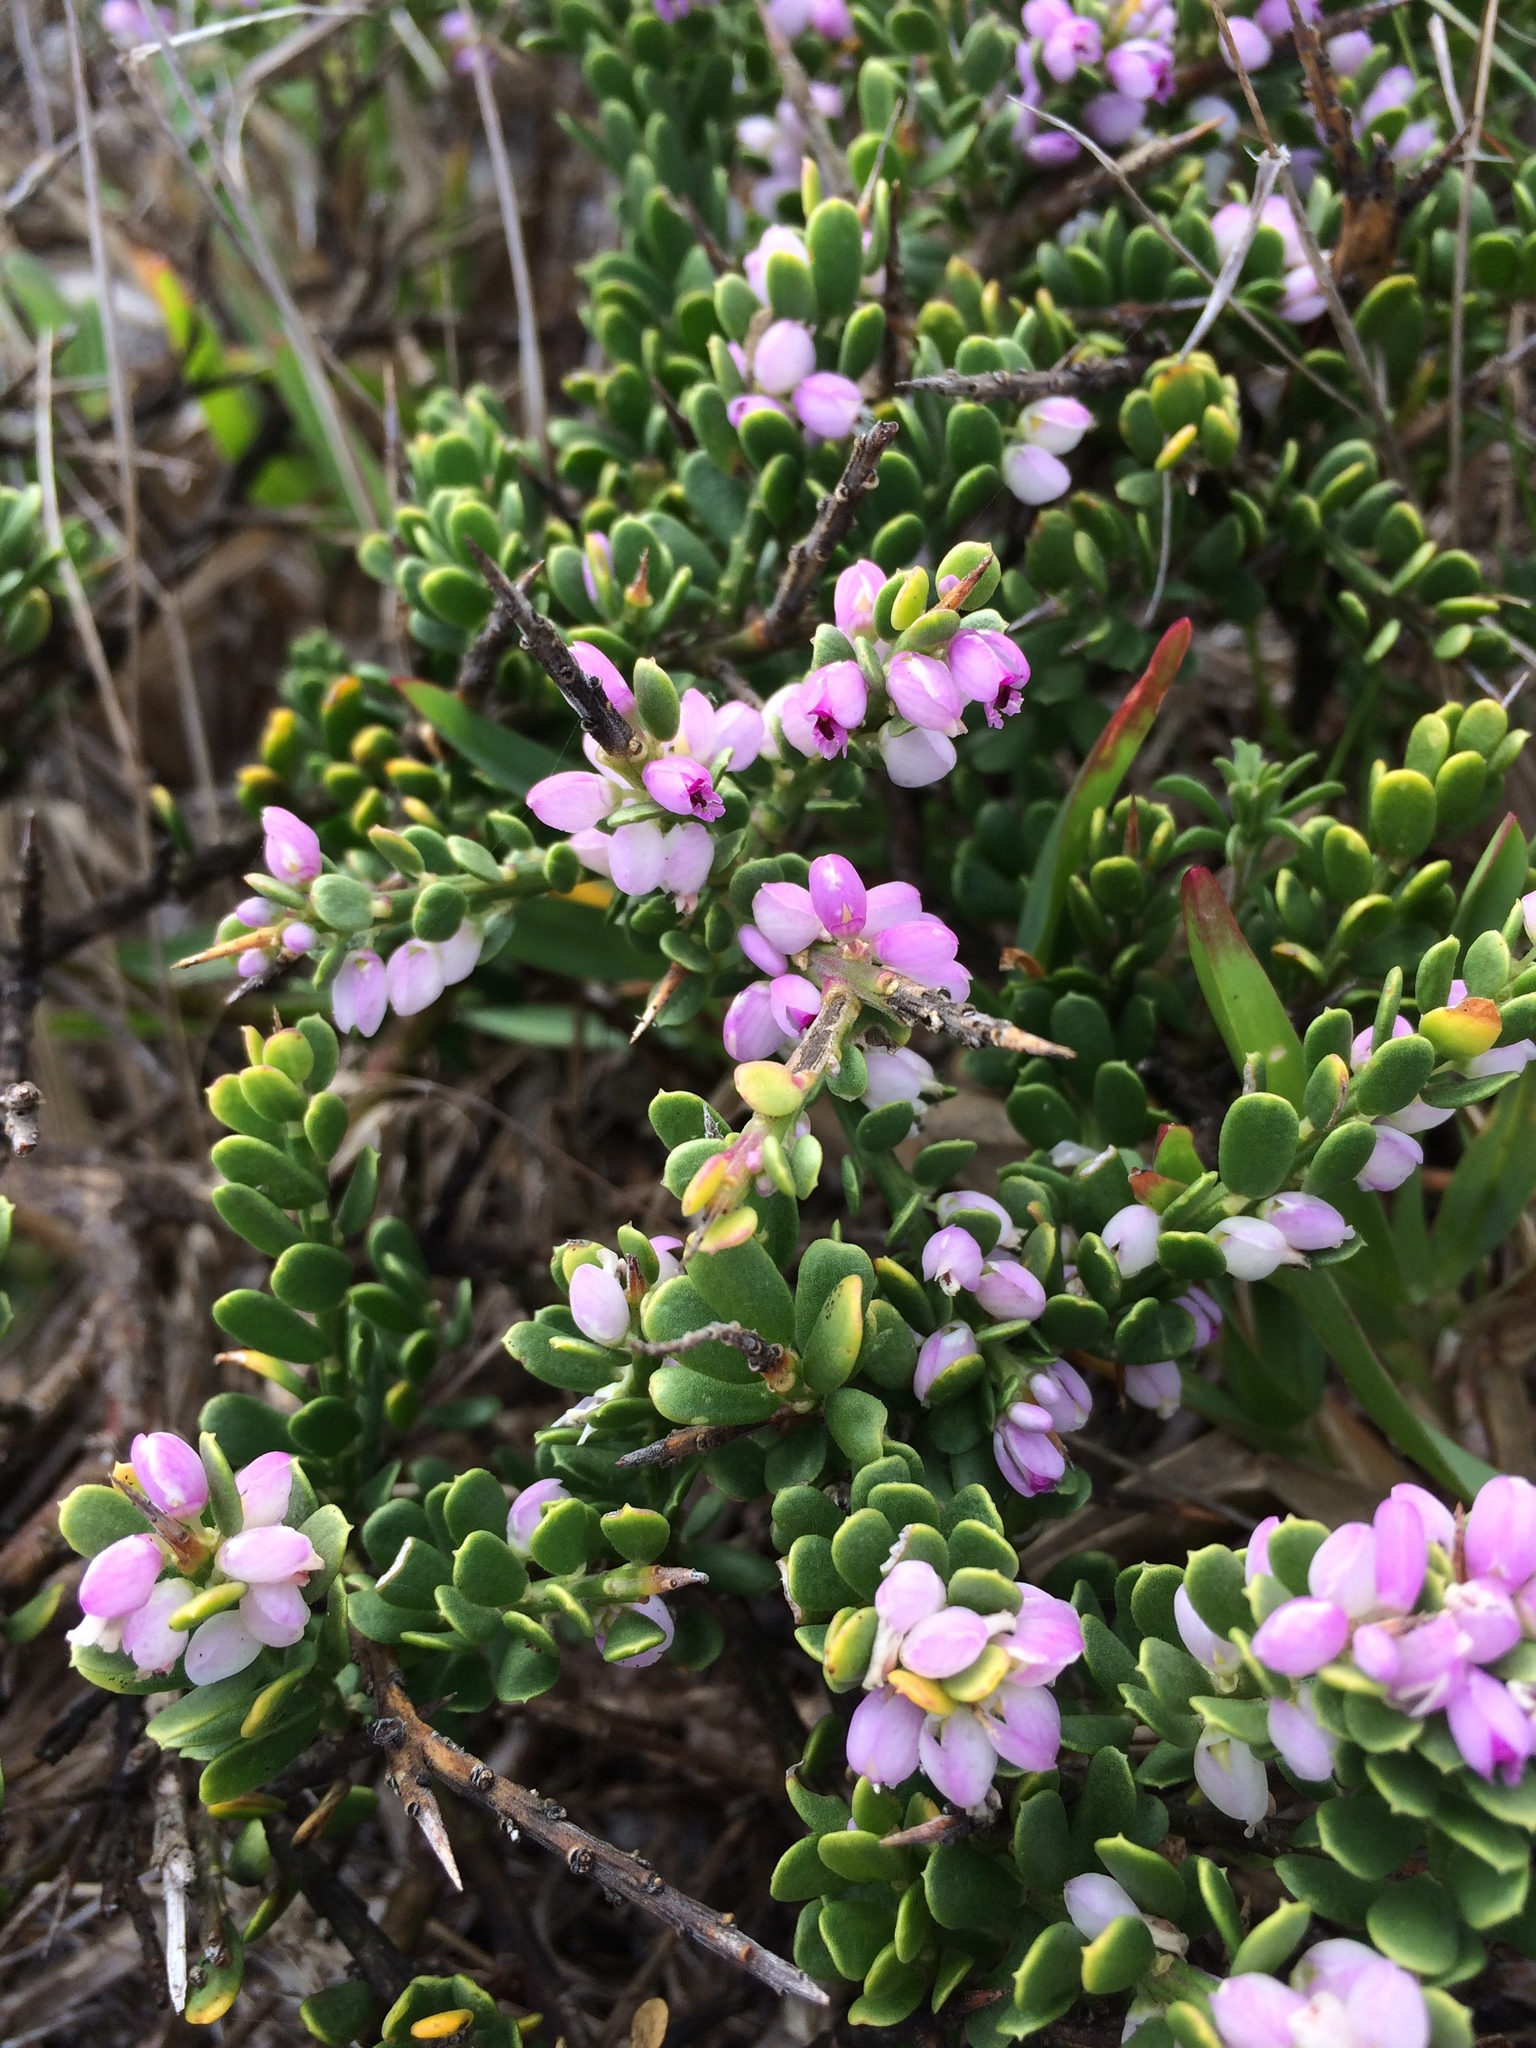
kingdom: Plantae
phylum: Tracheophyta
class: Magnoliopsida
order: Fabales
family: Polygalaceae
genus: Muraltia
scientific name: Muraltia spinosa
